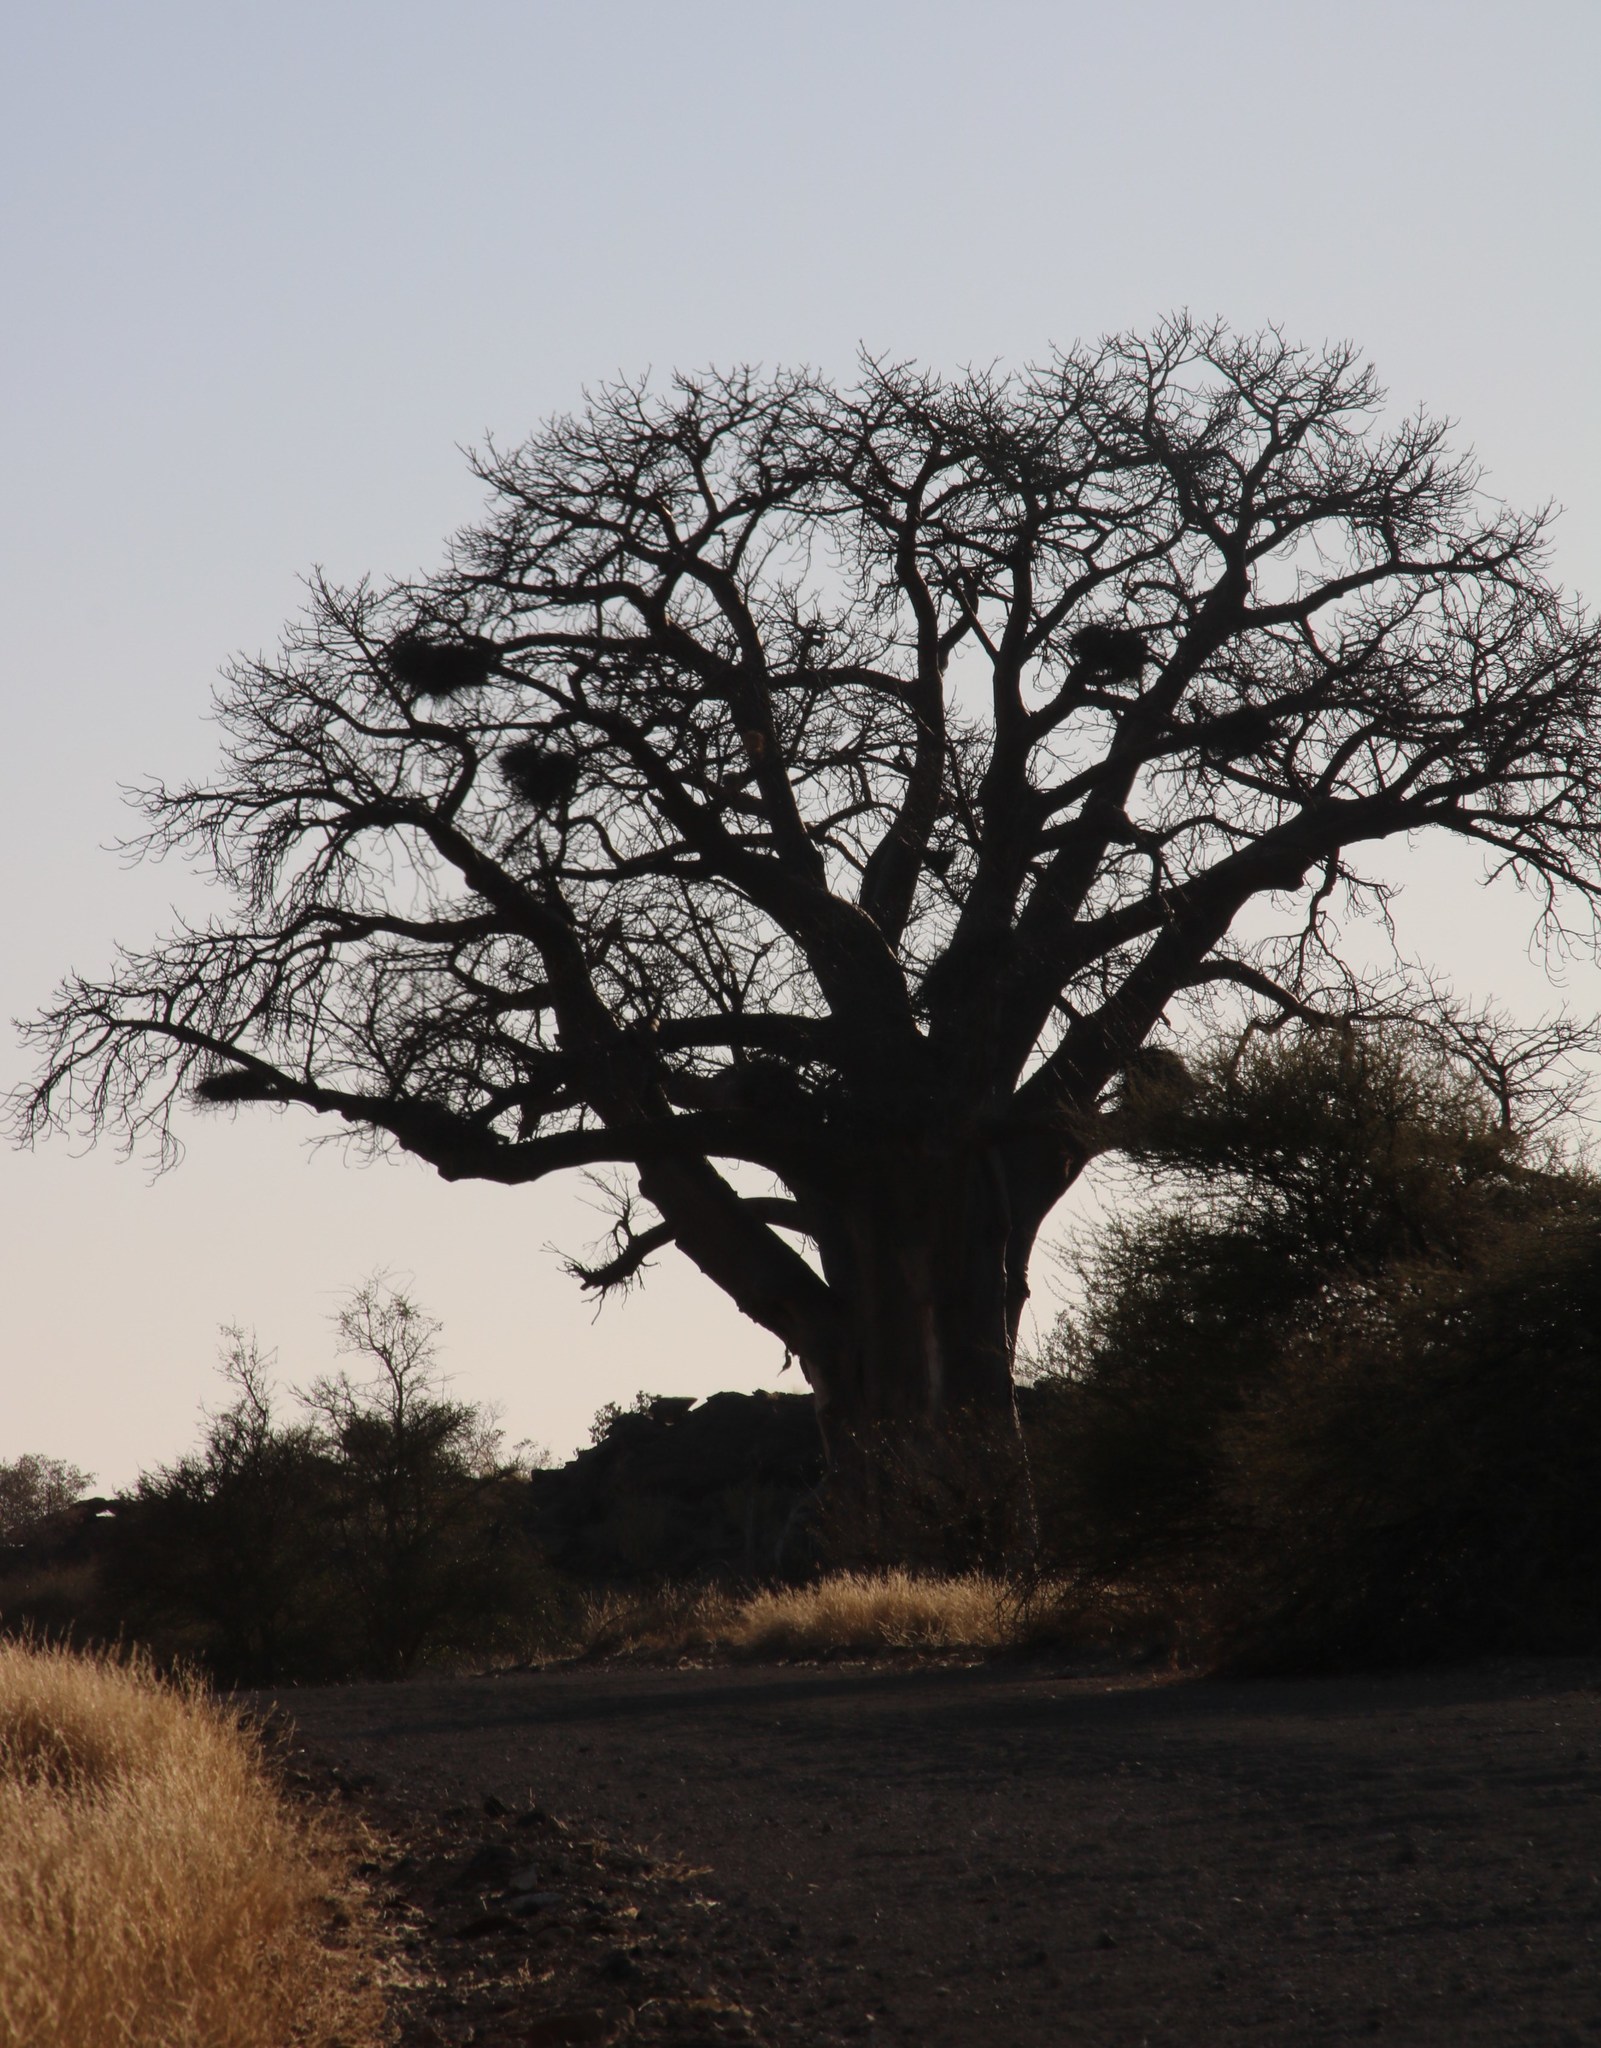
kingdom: Plantae
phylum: Tracheophyta
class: Magnoliopsida
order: Malvales
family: Malvaceae
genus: Adansonia
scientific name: Adansonia digitata
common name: Dead-rat-tree
